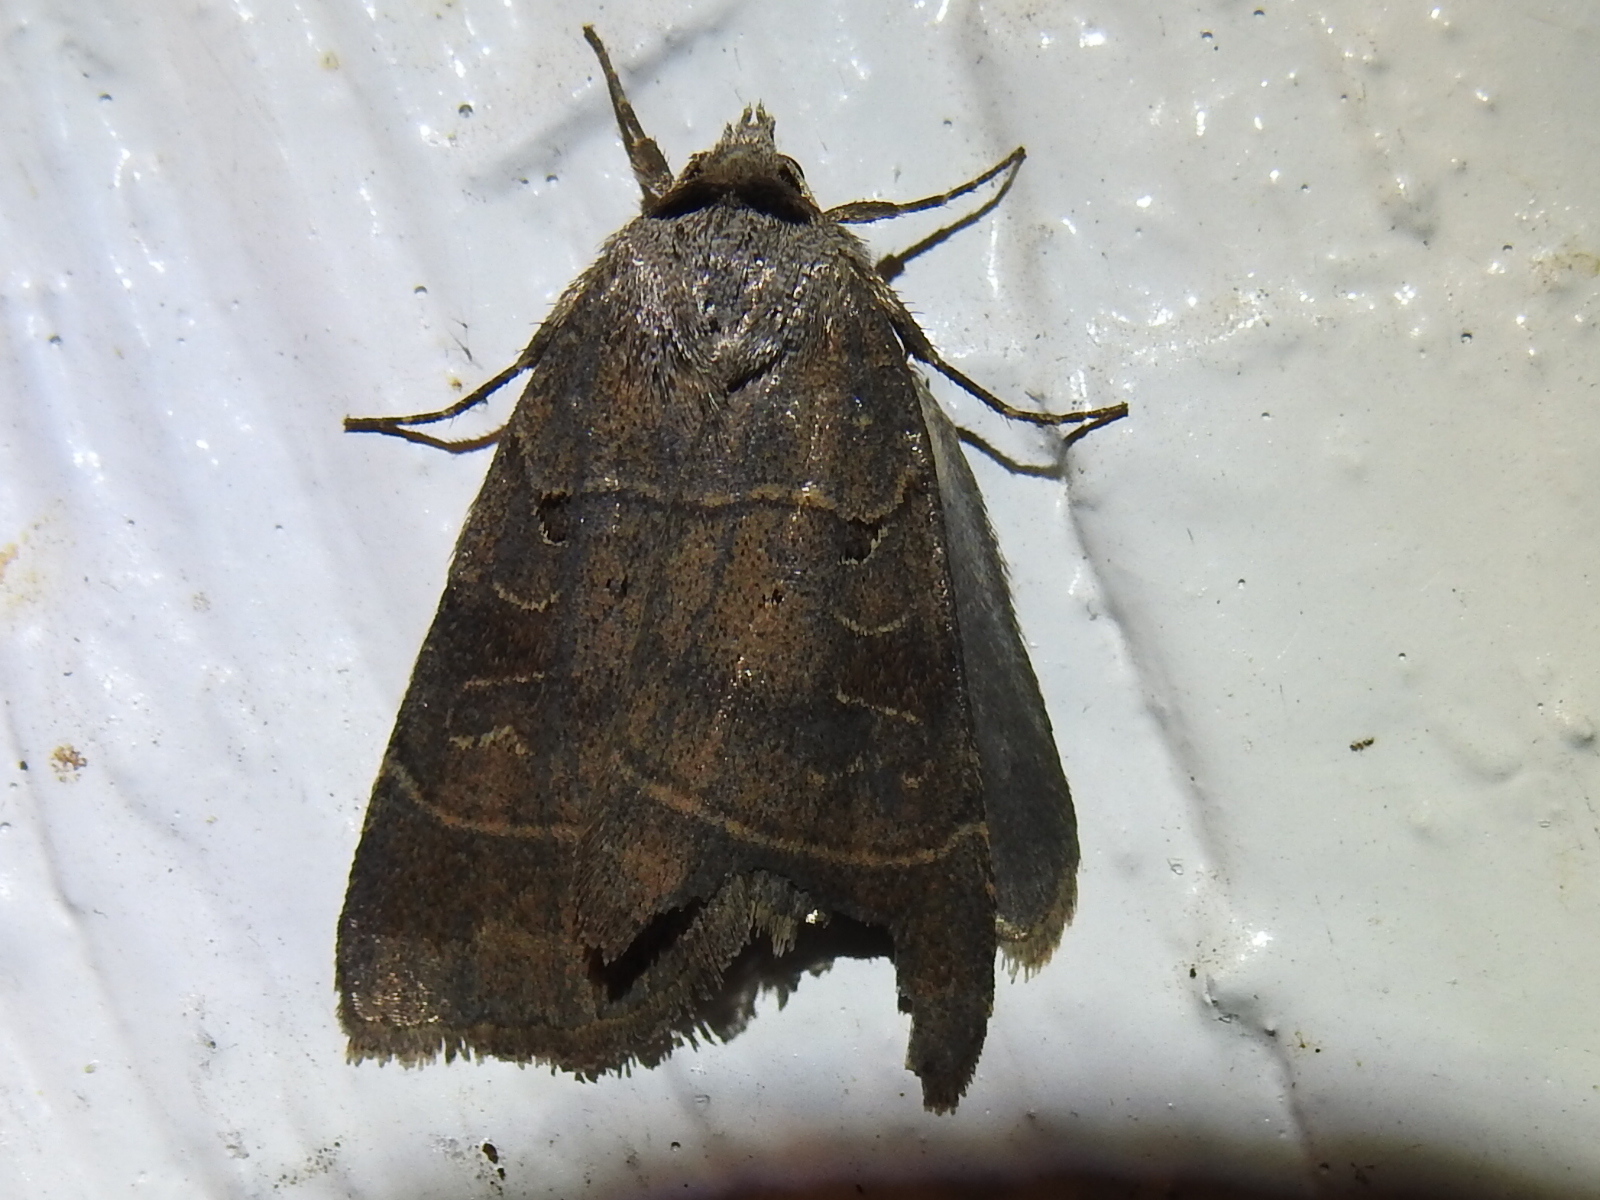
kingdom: Animalia
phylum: Arthropoda
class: Insecta
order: Lepidoptera
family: Noctuidae
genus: Agnorisma
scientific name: Agnorisma badinodis
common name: Pale-banded dart
